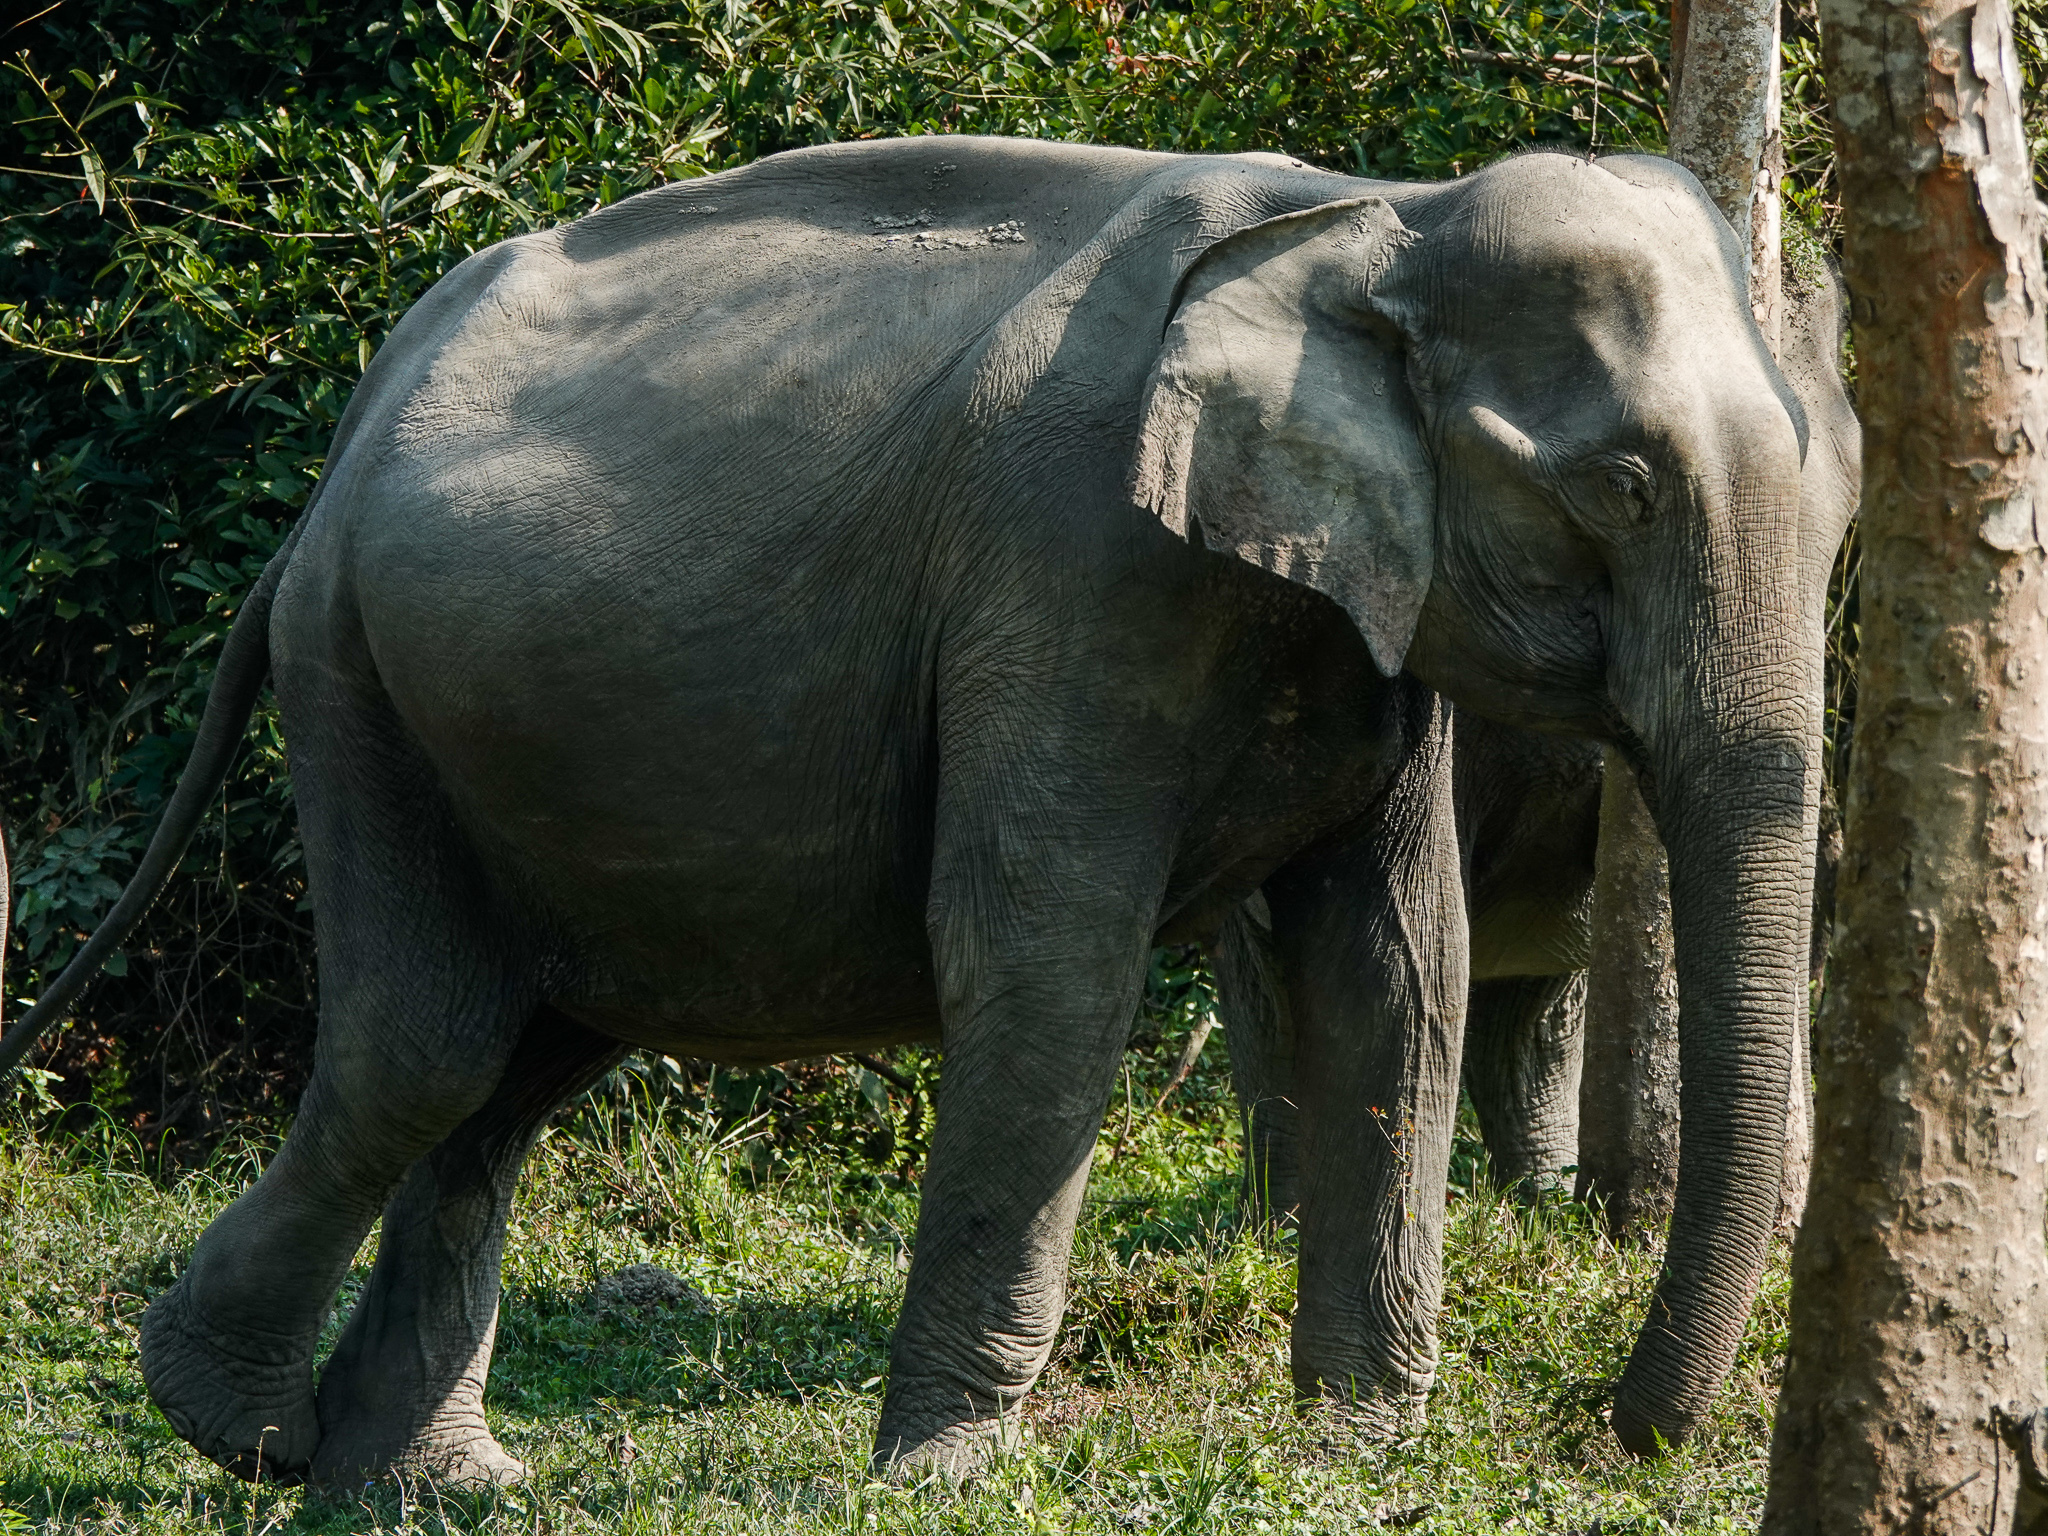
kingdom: Animalia
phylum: Chordata
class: Mammalia
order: Proboscidea
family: Elephantidae
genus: Elephas
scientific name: Elephas maximus
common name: Asian elephant
